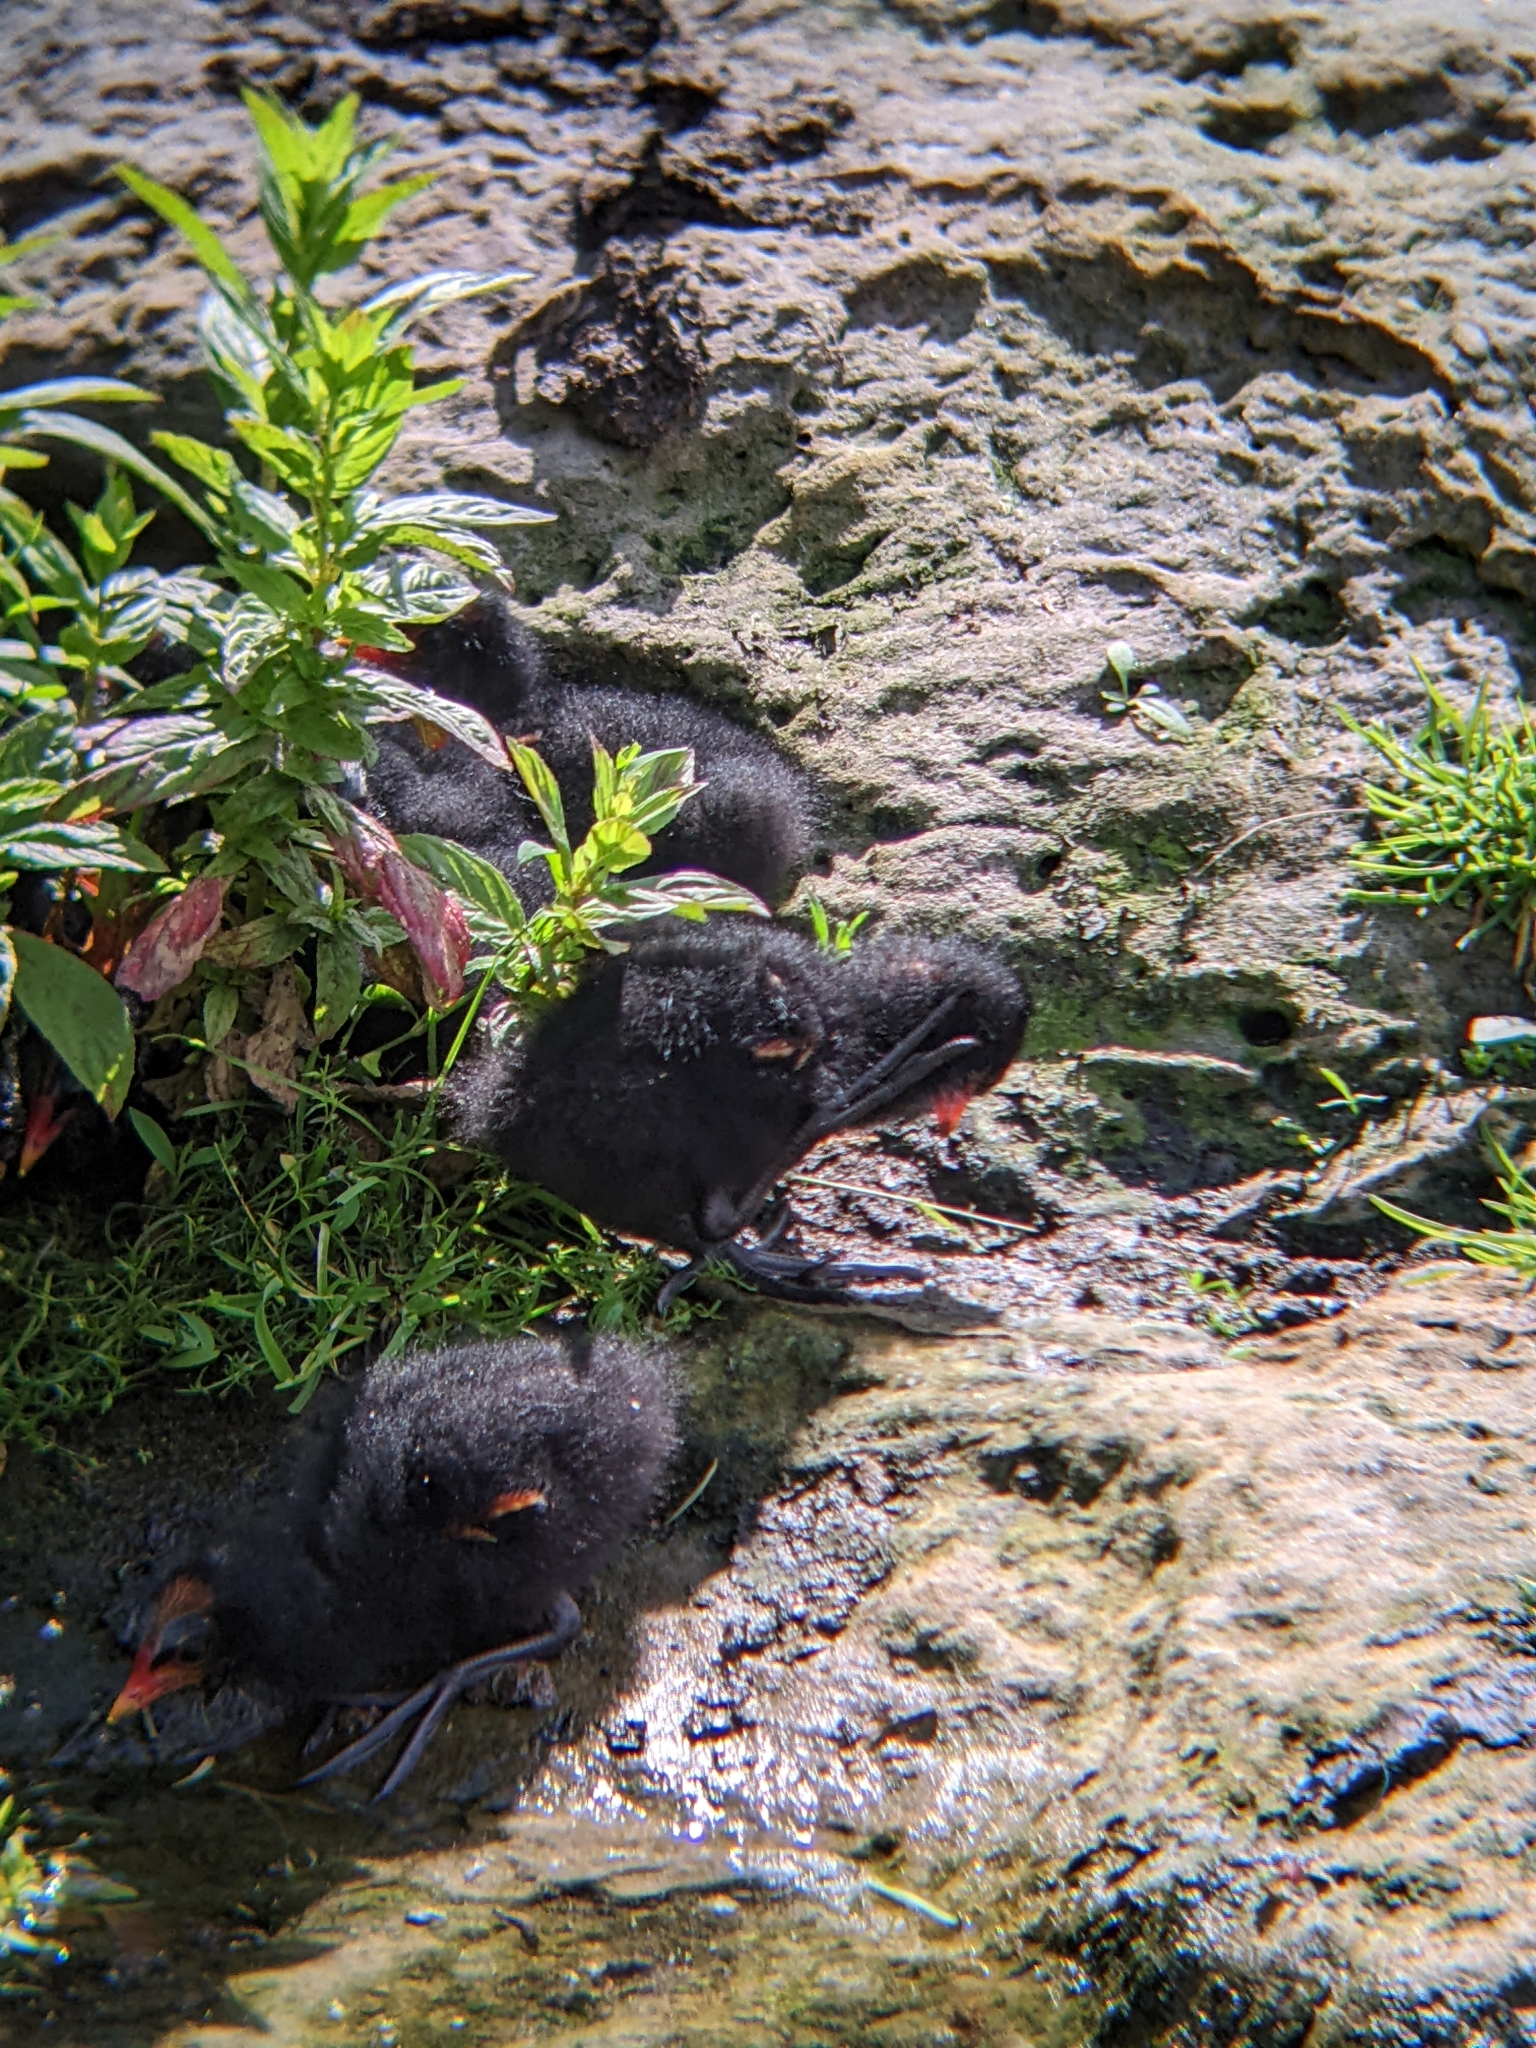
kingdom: Animalia
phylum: Chordata
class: Aves
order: Gruiformes
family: Rallidae
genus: Gallinula
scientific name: Gallinula chloropus
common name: Common moorhen
